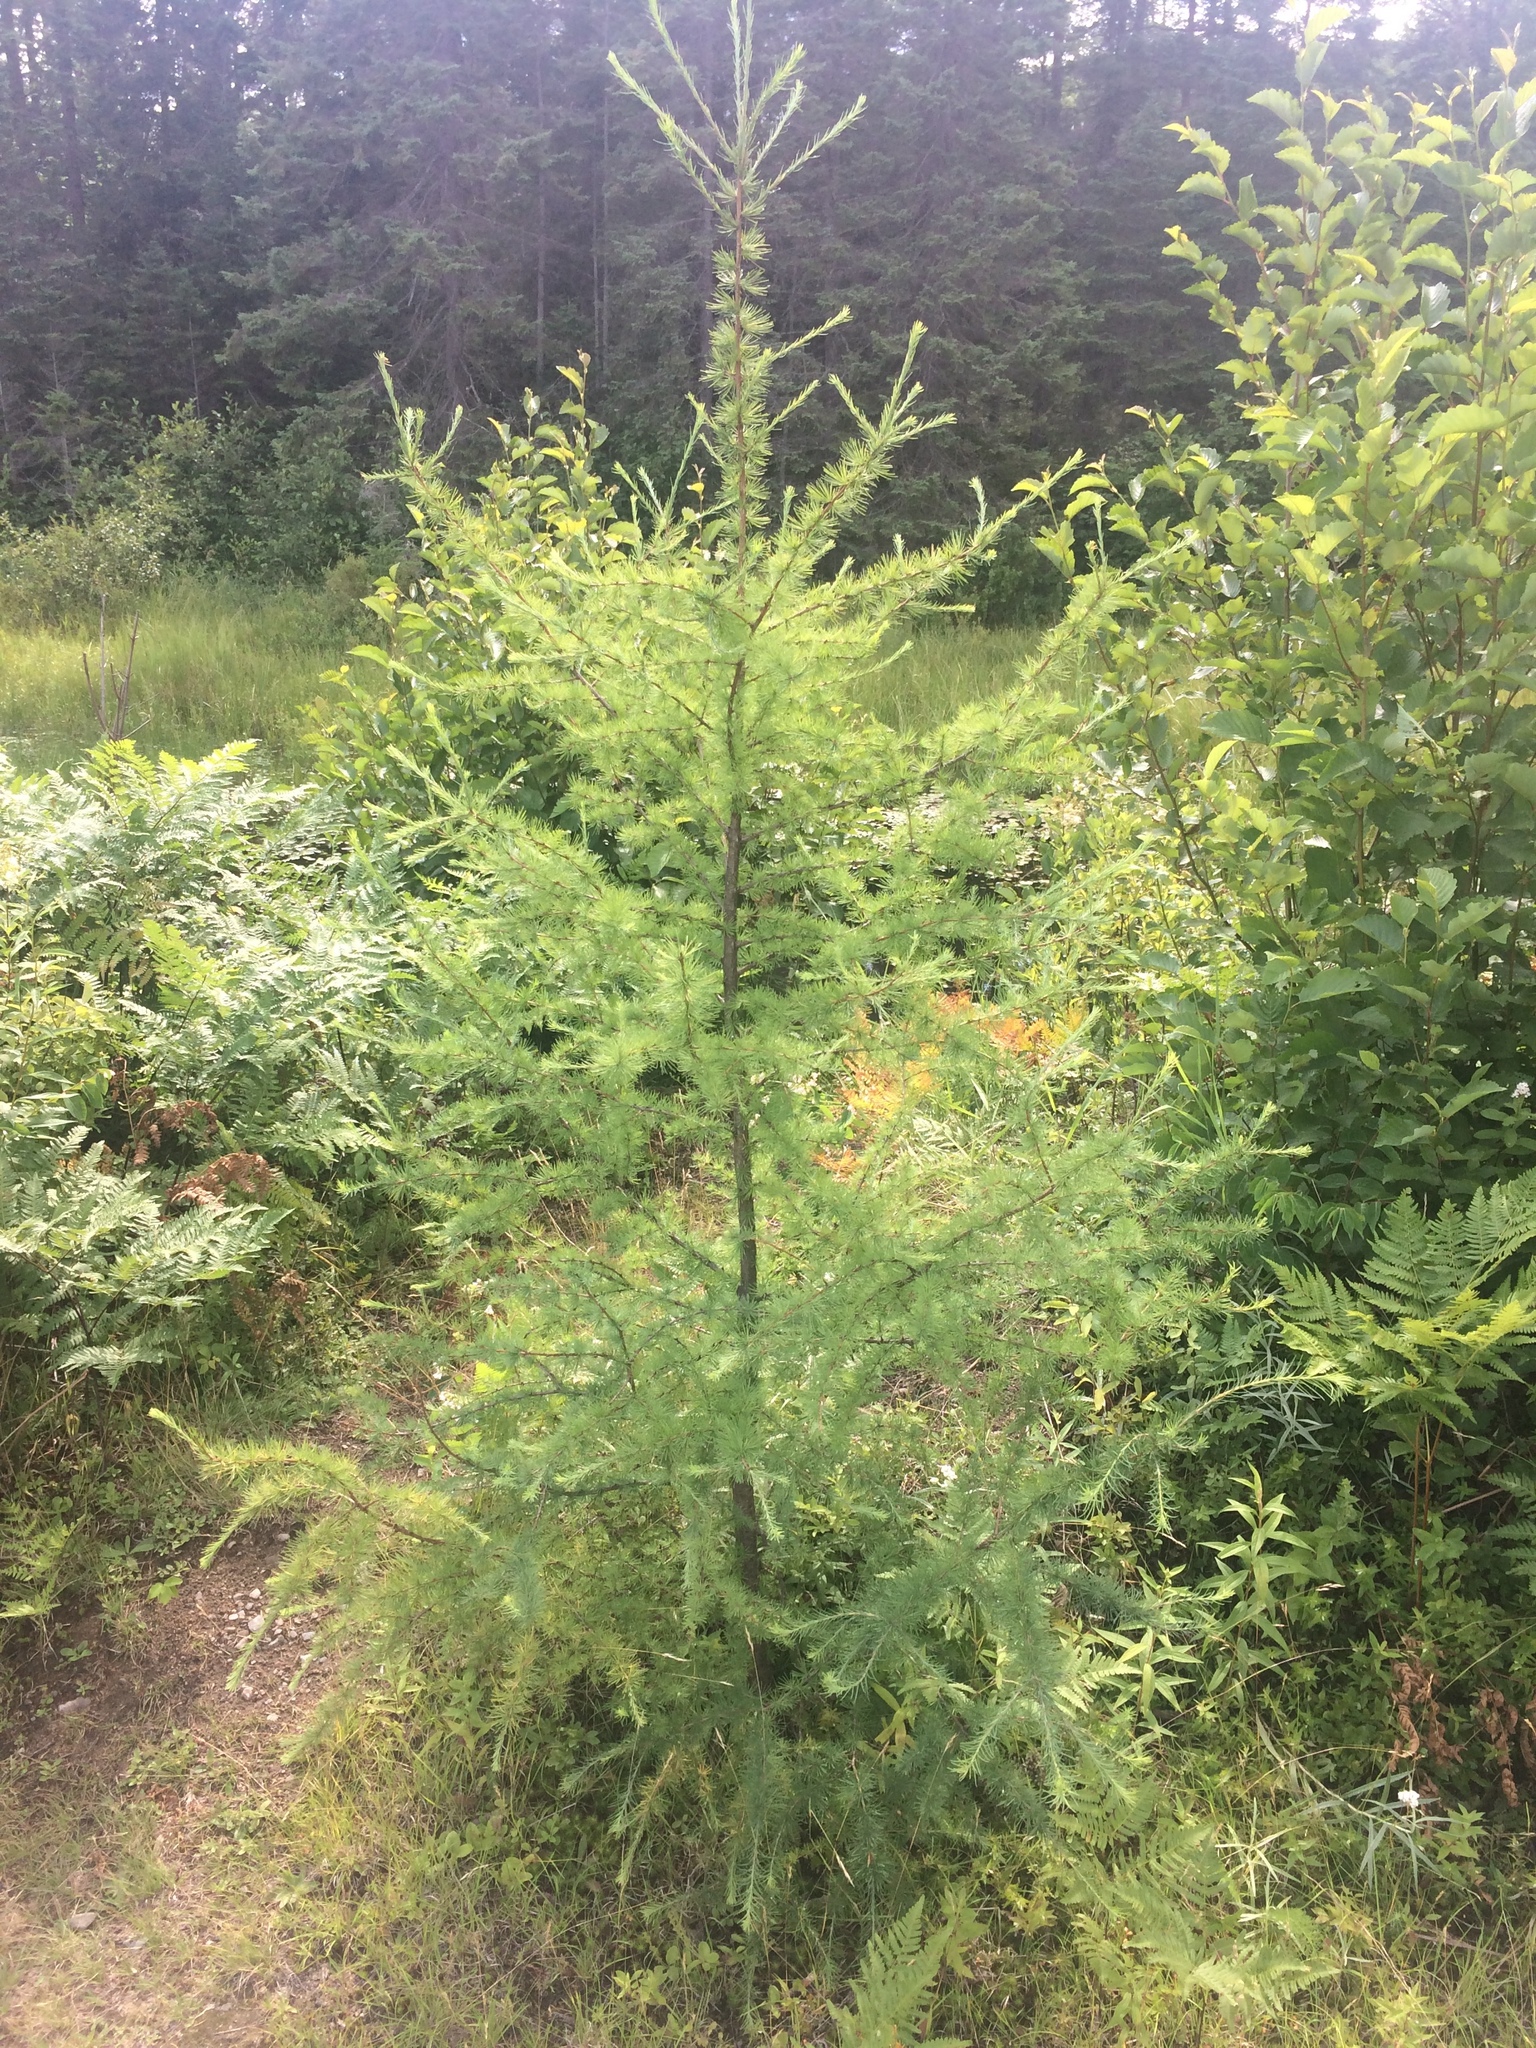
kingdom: Plantae
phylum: Tracheophyta
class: Pinopsida
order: Pinales
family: Pinaceae
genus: Larix
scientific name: Larix laricina
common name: American larch
